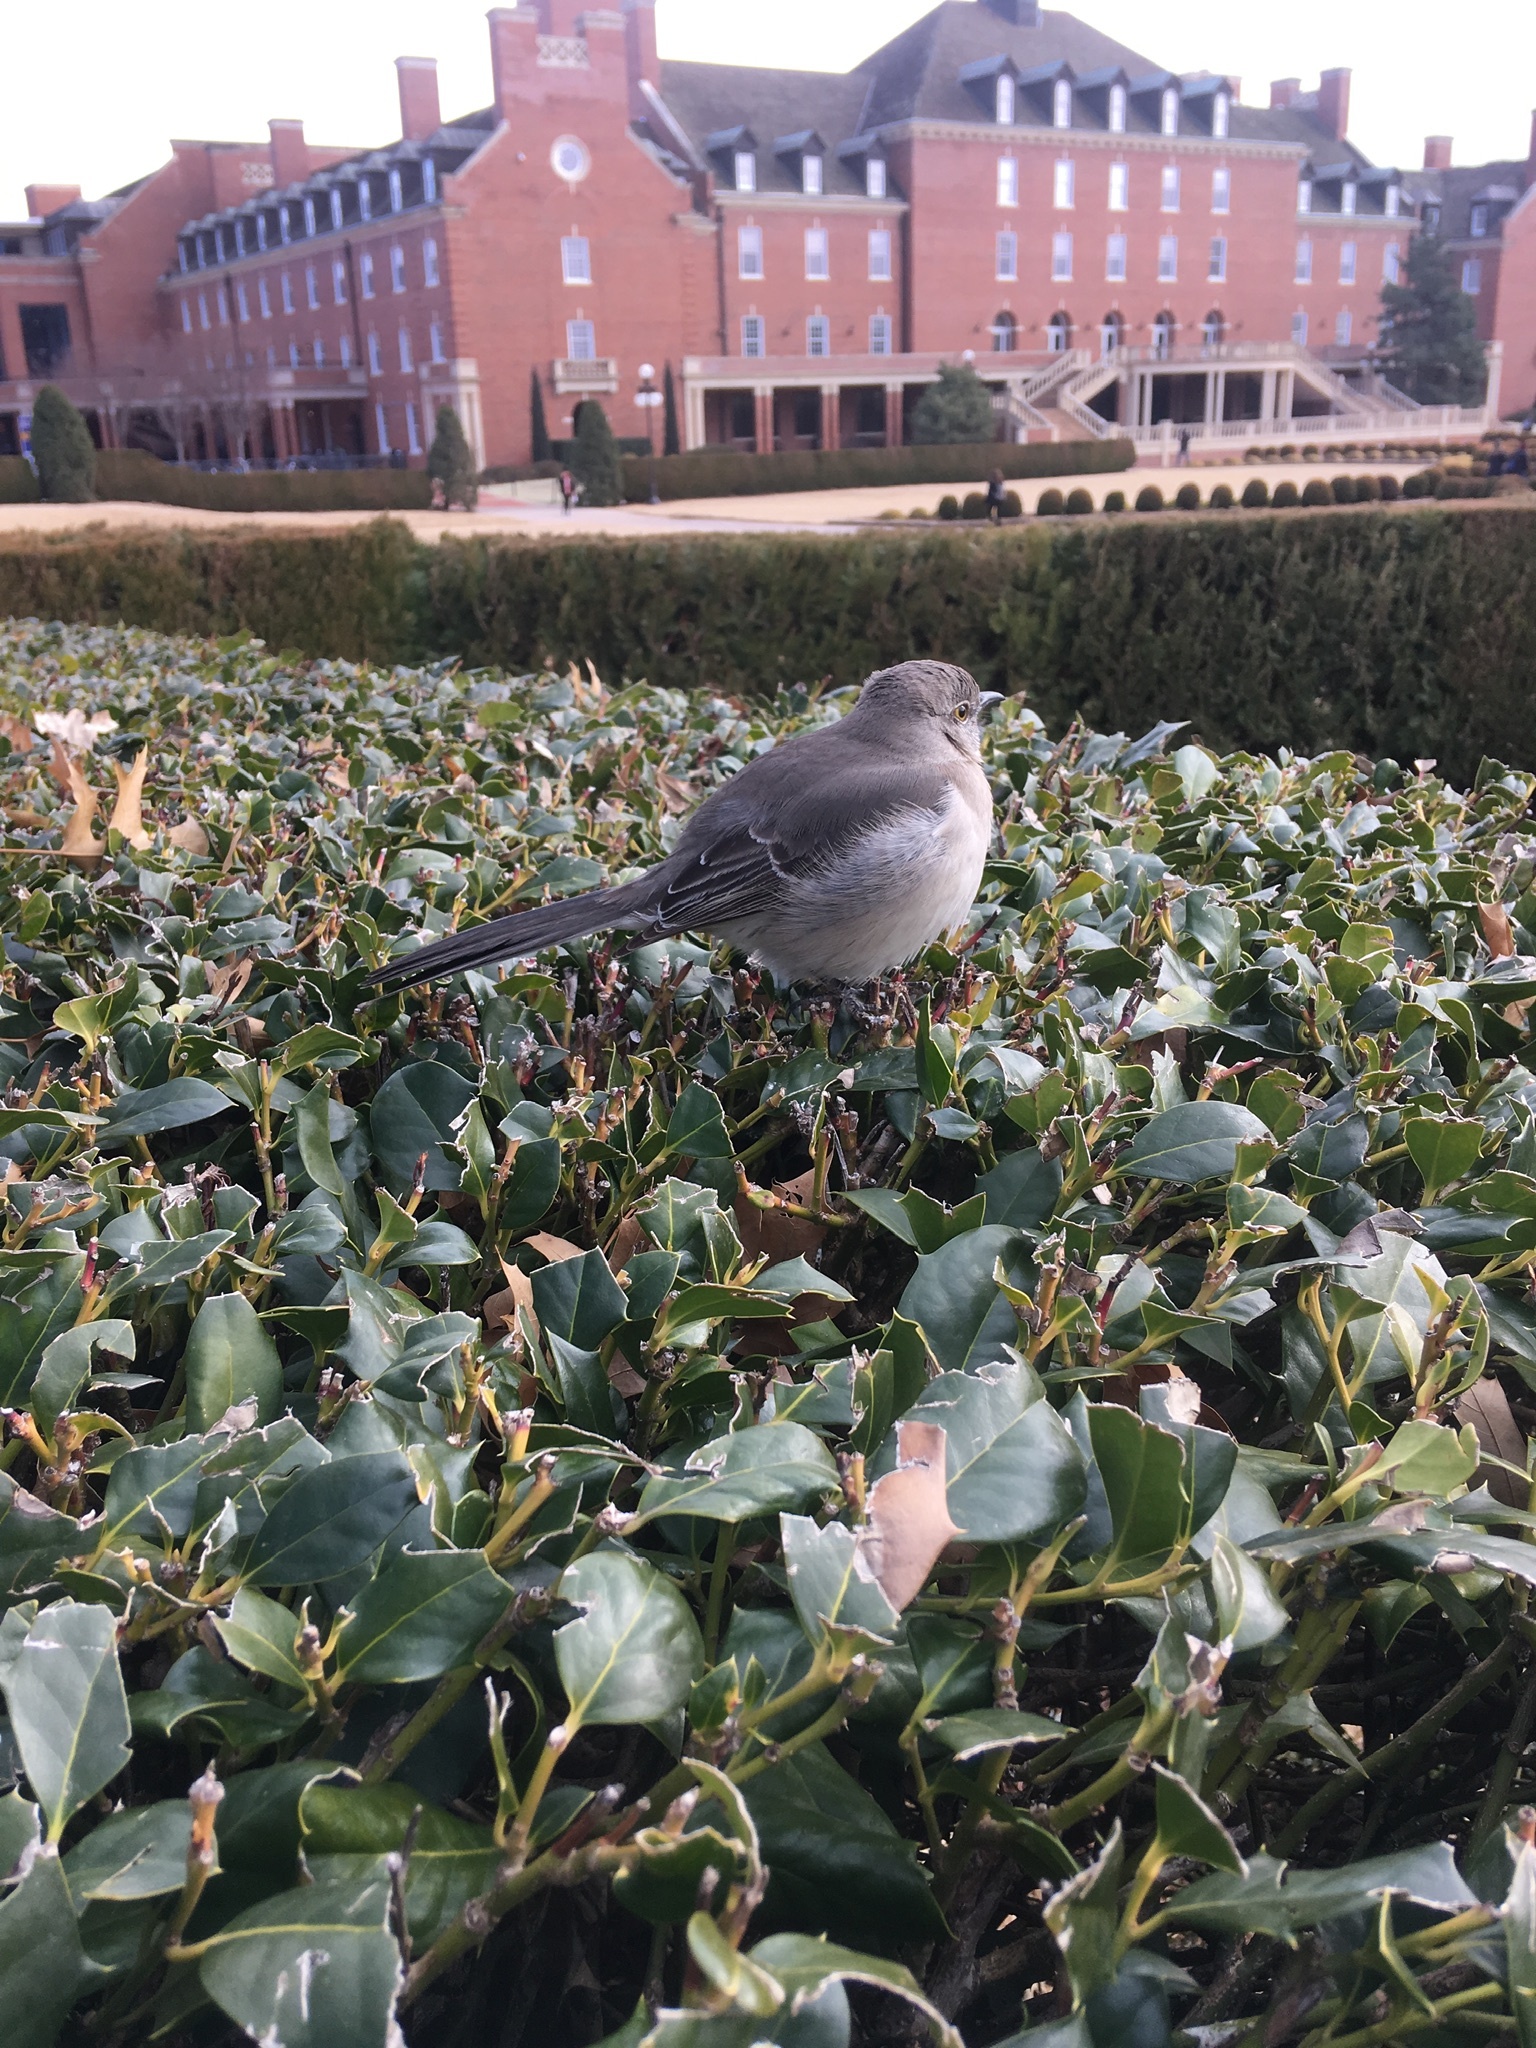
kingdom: Animalia
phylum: Chordata
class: Aves
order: Passeriformes
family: Mimidae
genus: Mimus
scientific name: Mimus polyglottos
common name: Northern mockingbird
